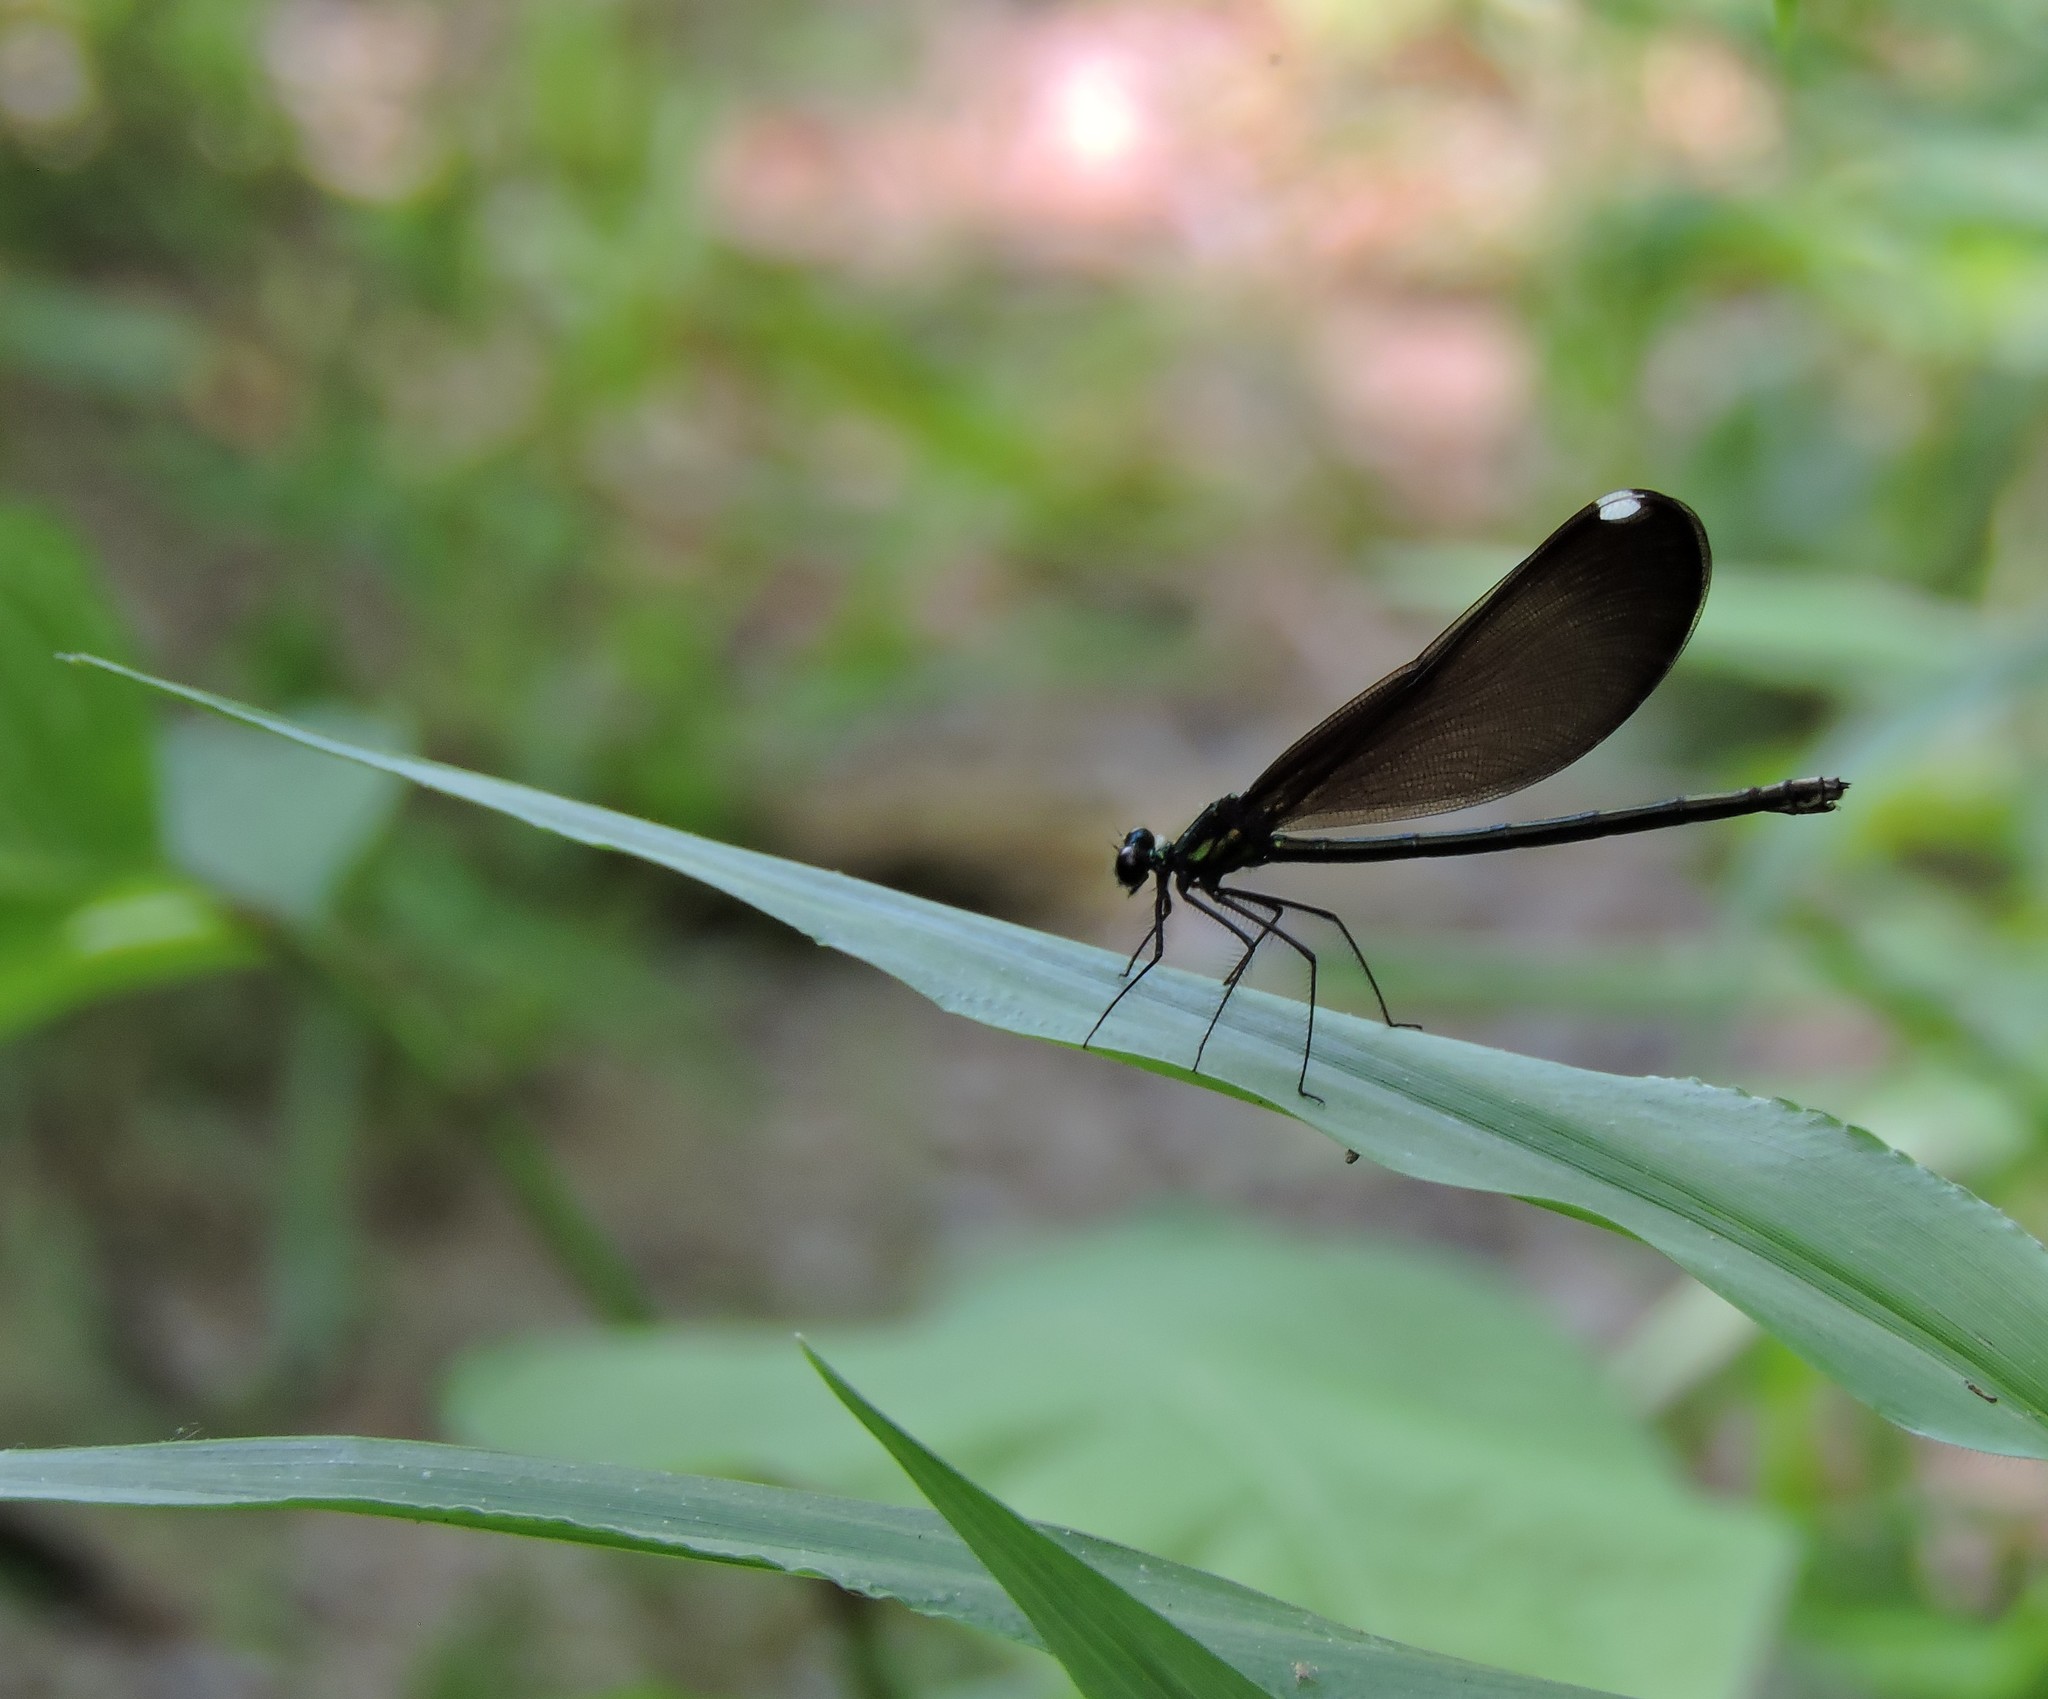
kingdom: Animalia
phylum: Arthropoda
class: Insecta
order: Odonata
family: Calopterygidae
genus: Calopteryx
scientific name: Calopteryx maculata
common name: Ebony jewelwing
